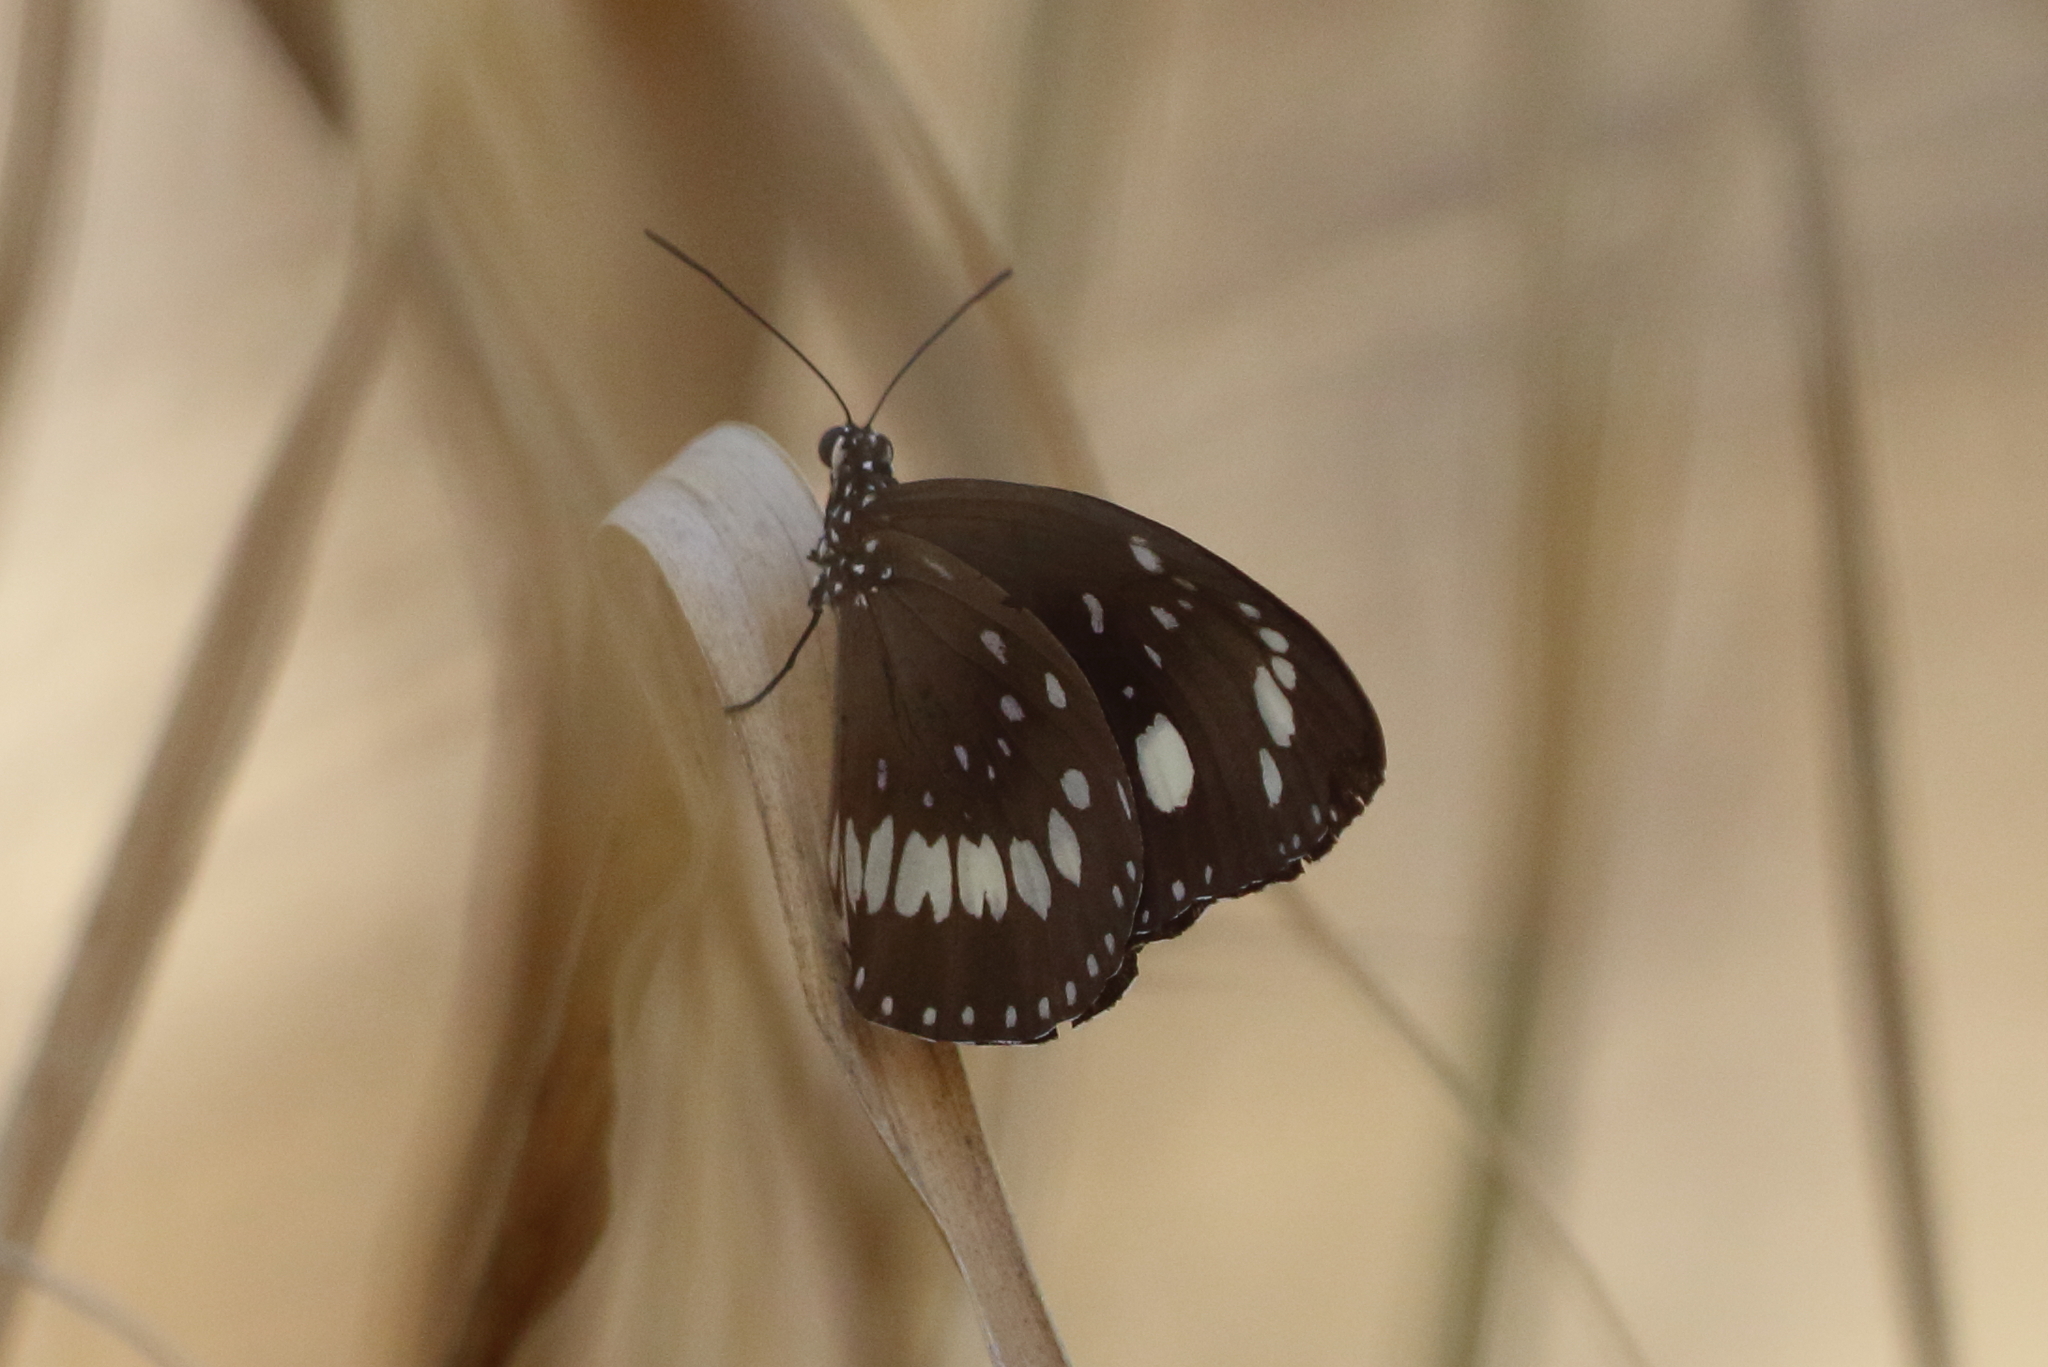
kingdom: Animalia
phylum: Arthropoda
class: Insecta
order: Lepidoptera
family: Nymphalidae
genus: Euploea
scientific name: Euploea core
